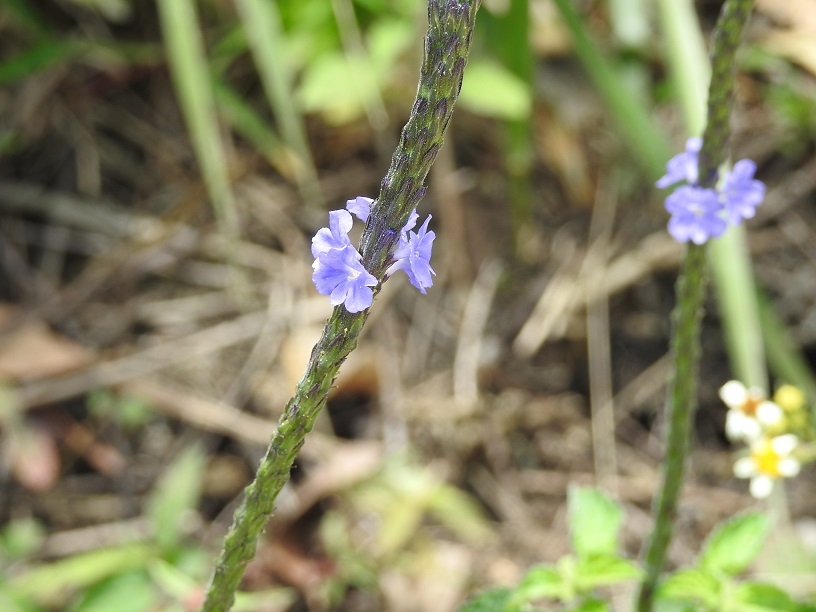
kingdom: Plantae
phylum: Tracheophyta
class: Magnoliopsida
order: Lamiales
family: Verbenaceae
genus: Stachytarpheta
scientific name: Stachytarpheta jamaicensis
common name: Light-blue snakeweed
